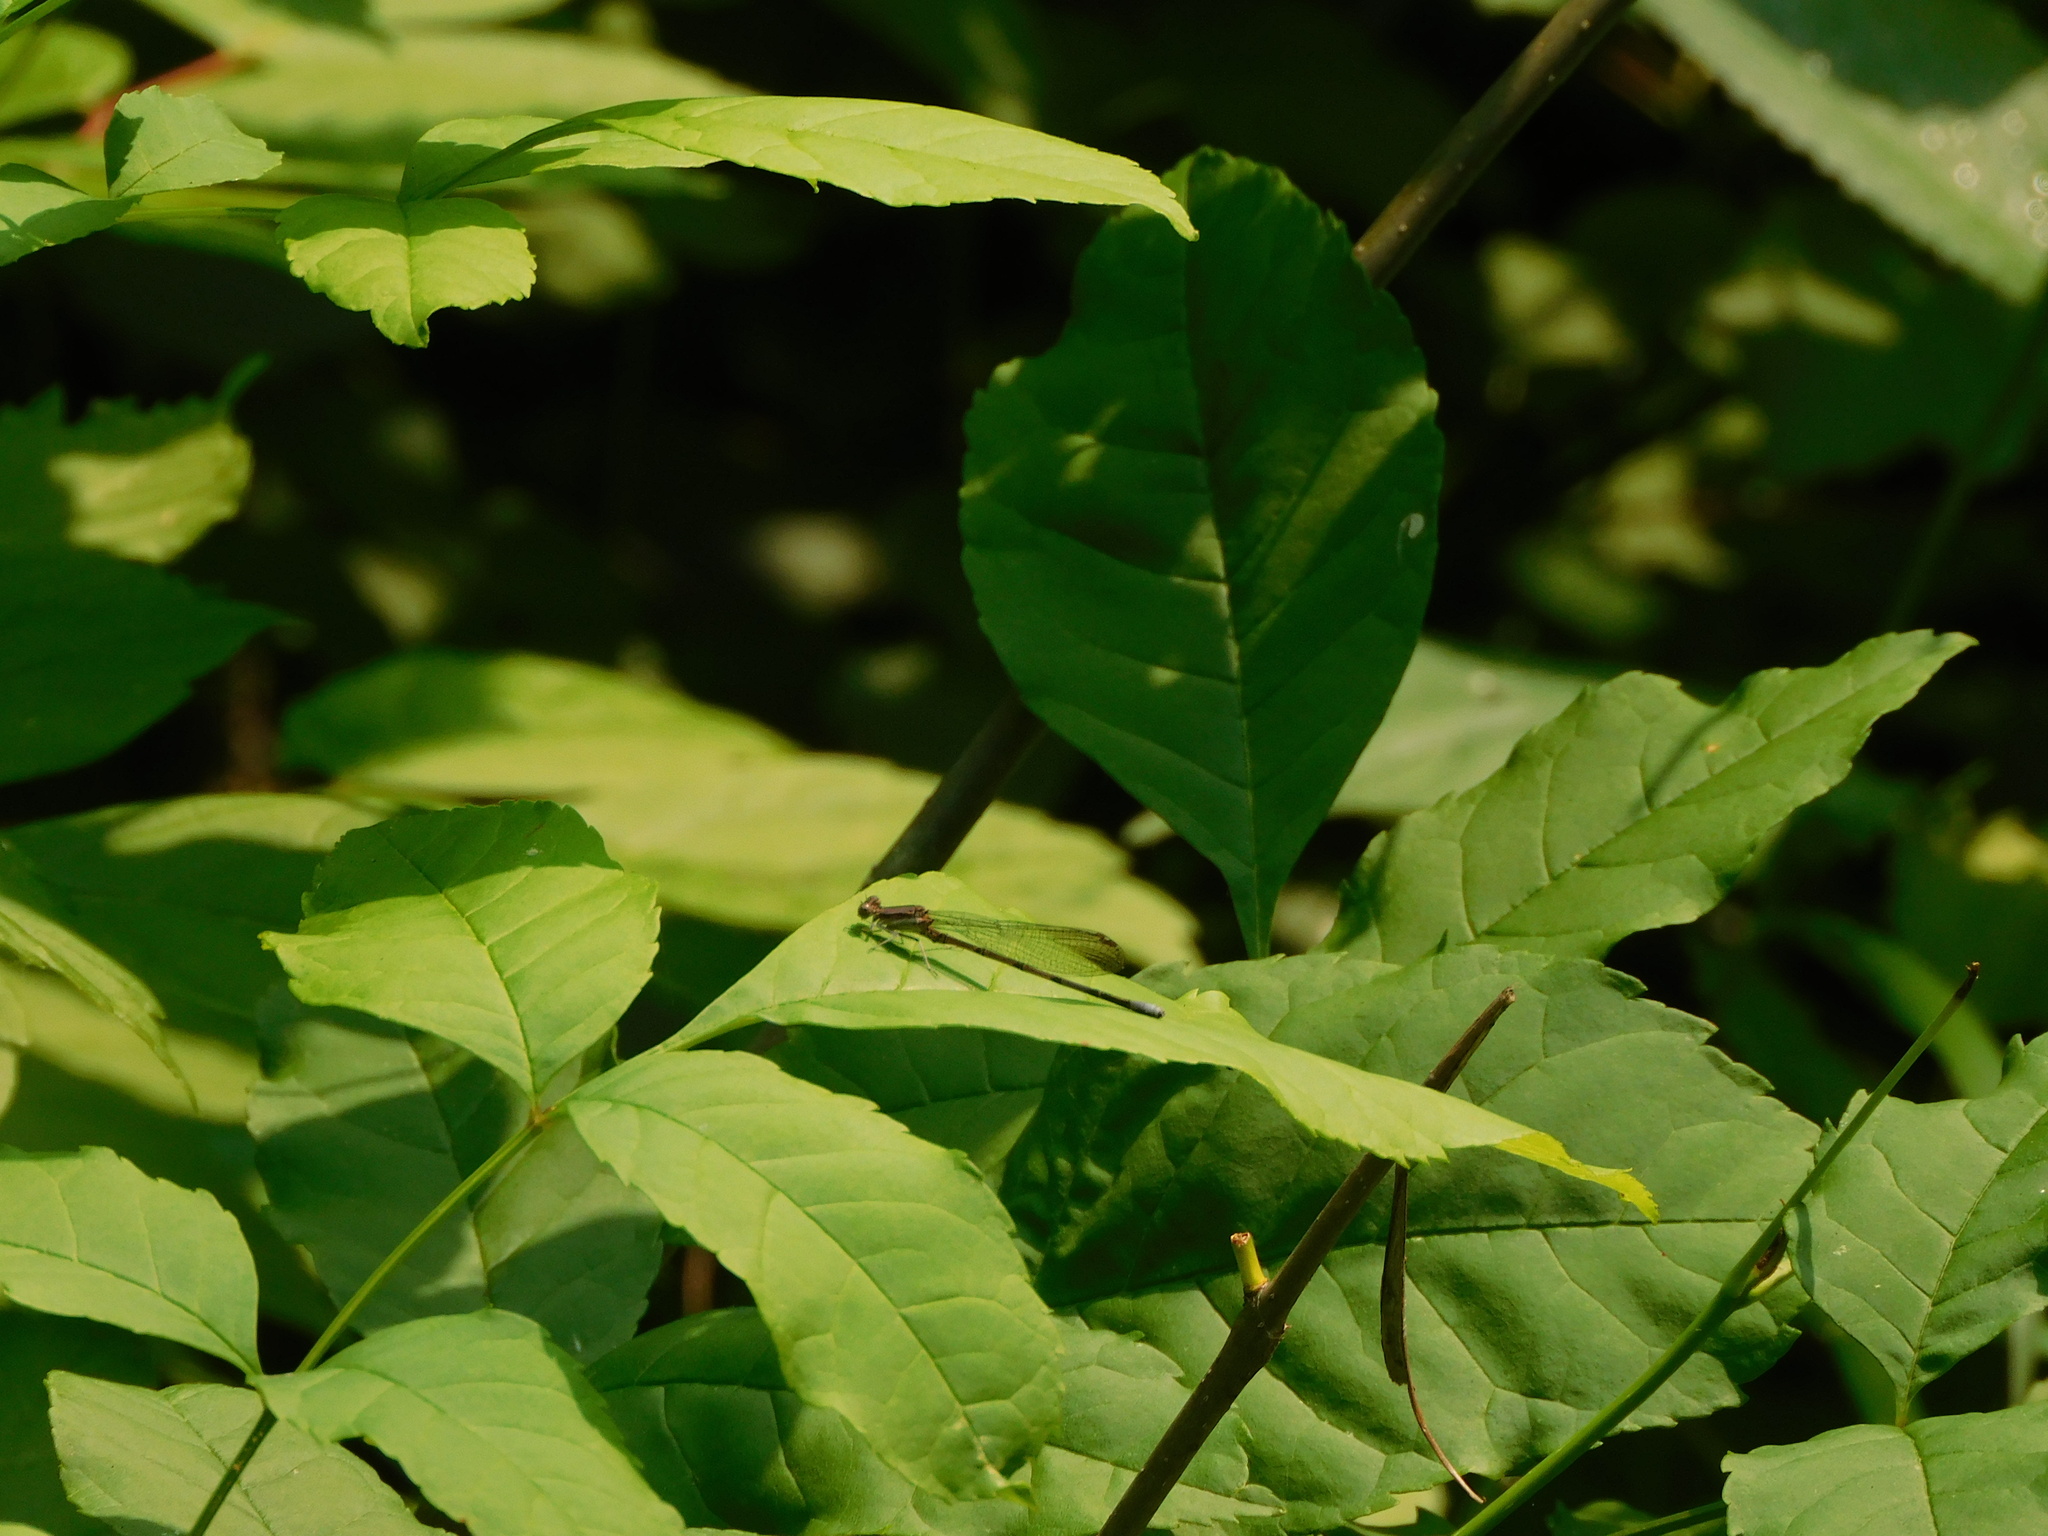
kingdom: Animalia
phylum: Arthropoda
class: Insecta
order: Odonata
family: Coenagrionidae
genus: Argia
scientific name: Argia fumipennis
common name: Variable dancer
